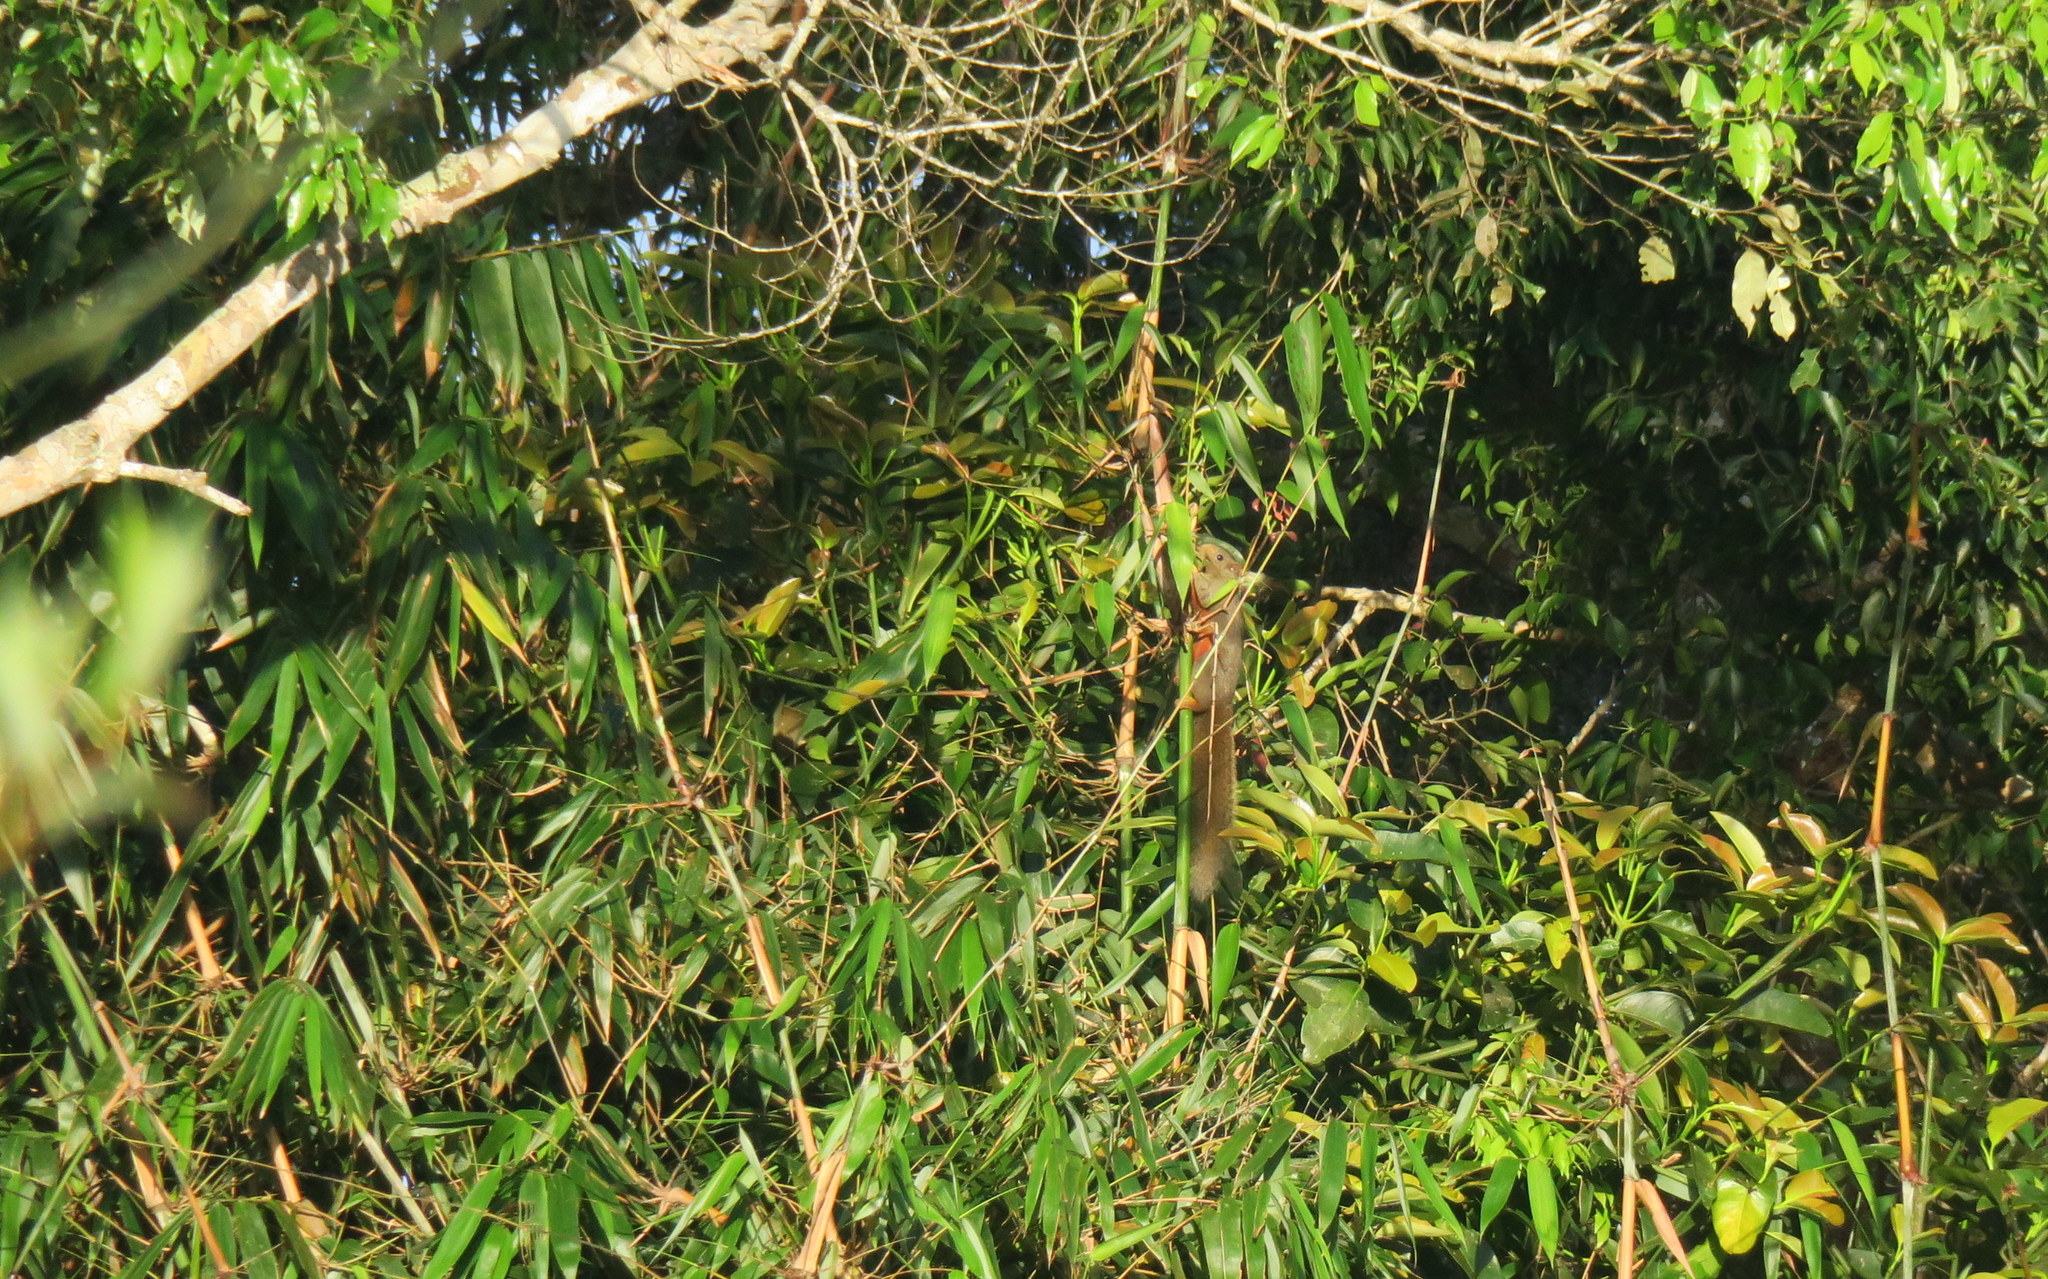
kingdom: Animalia
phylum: Chordata
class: Mammalia
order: Rodentia
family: Sciuridae
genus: Callosciurus
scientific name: Callosciurus erythraeus
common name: Pallas's squirrel
